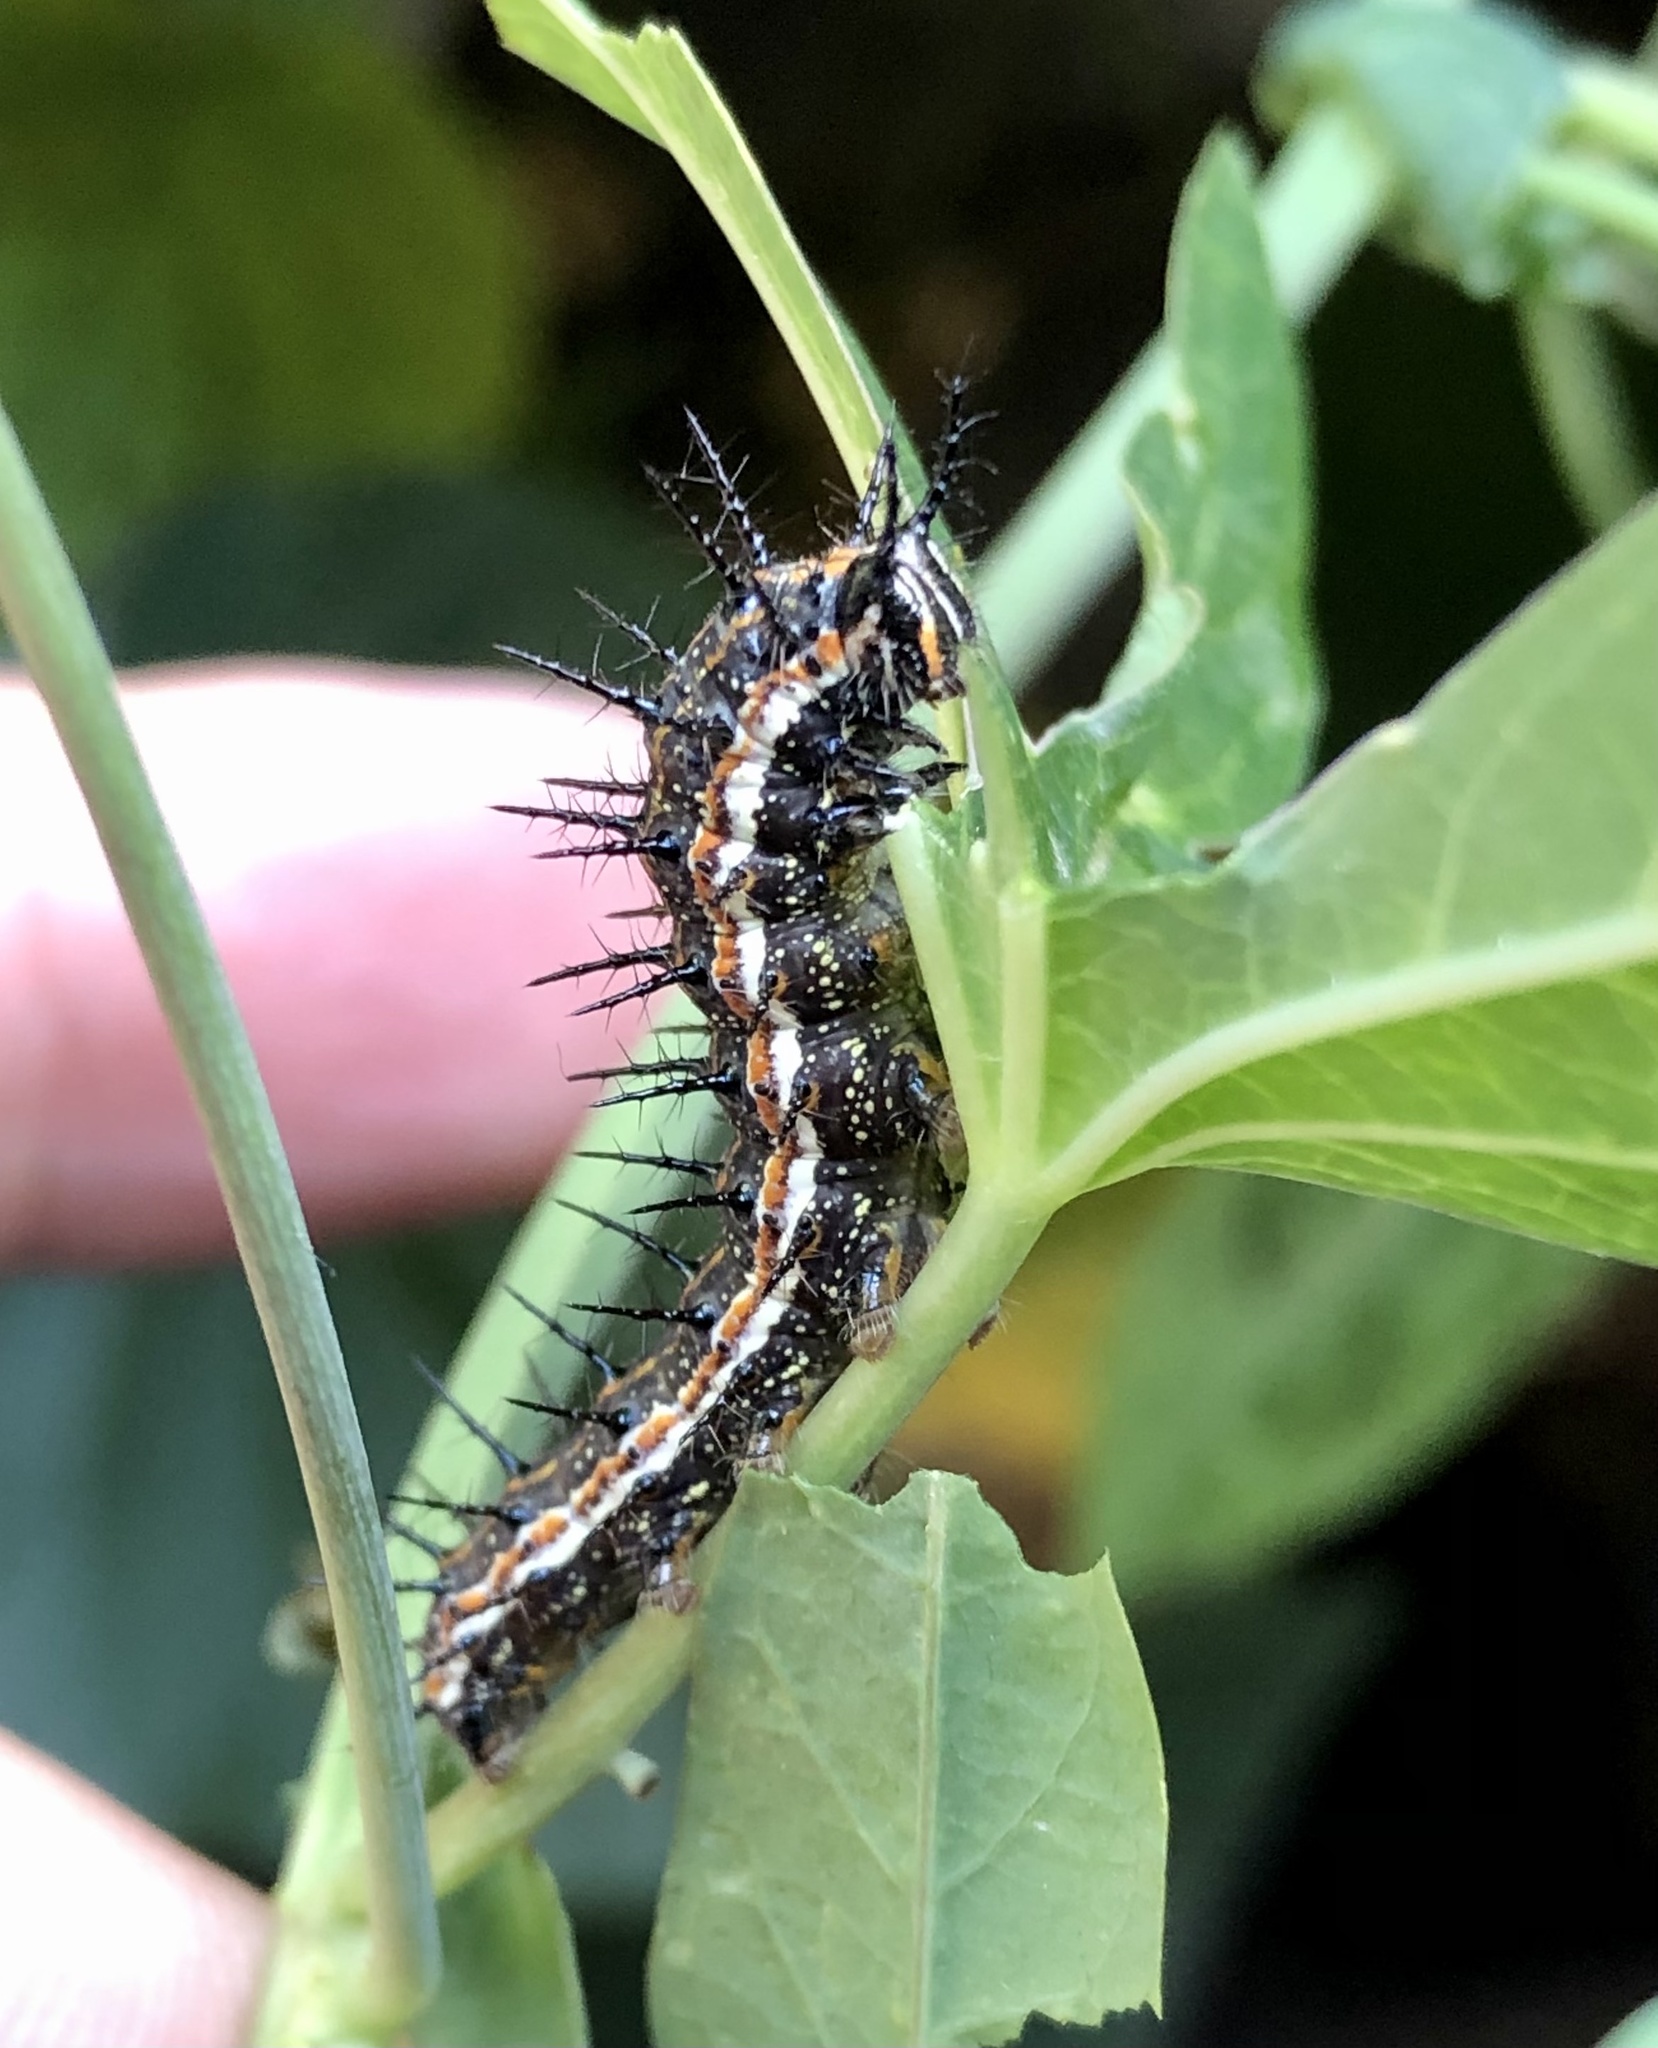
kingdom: Animalia
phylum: Arthropoda
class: Insecta
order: Lepidoptera
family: Nymphalidae
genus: Dione
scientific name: Dione vanillae
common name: Gulf fritillary
